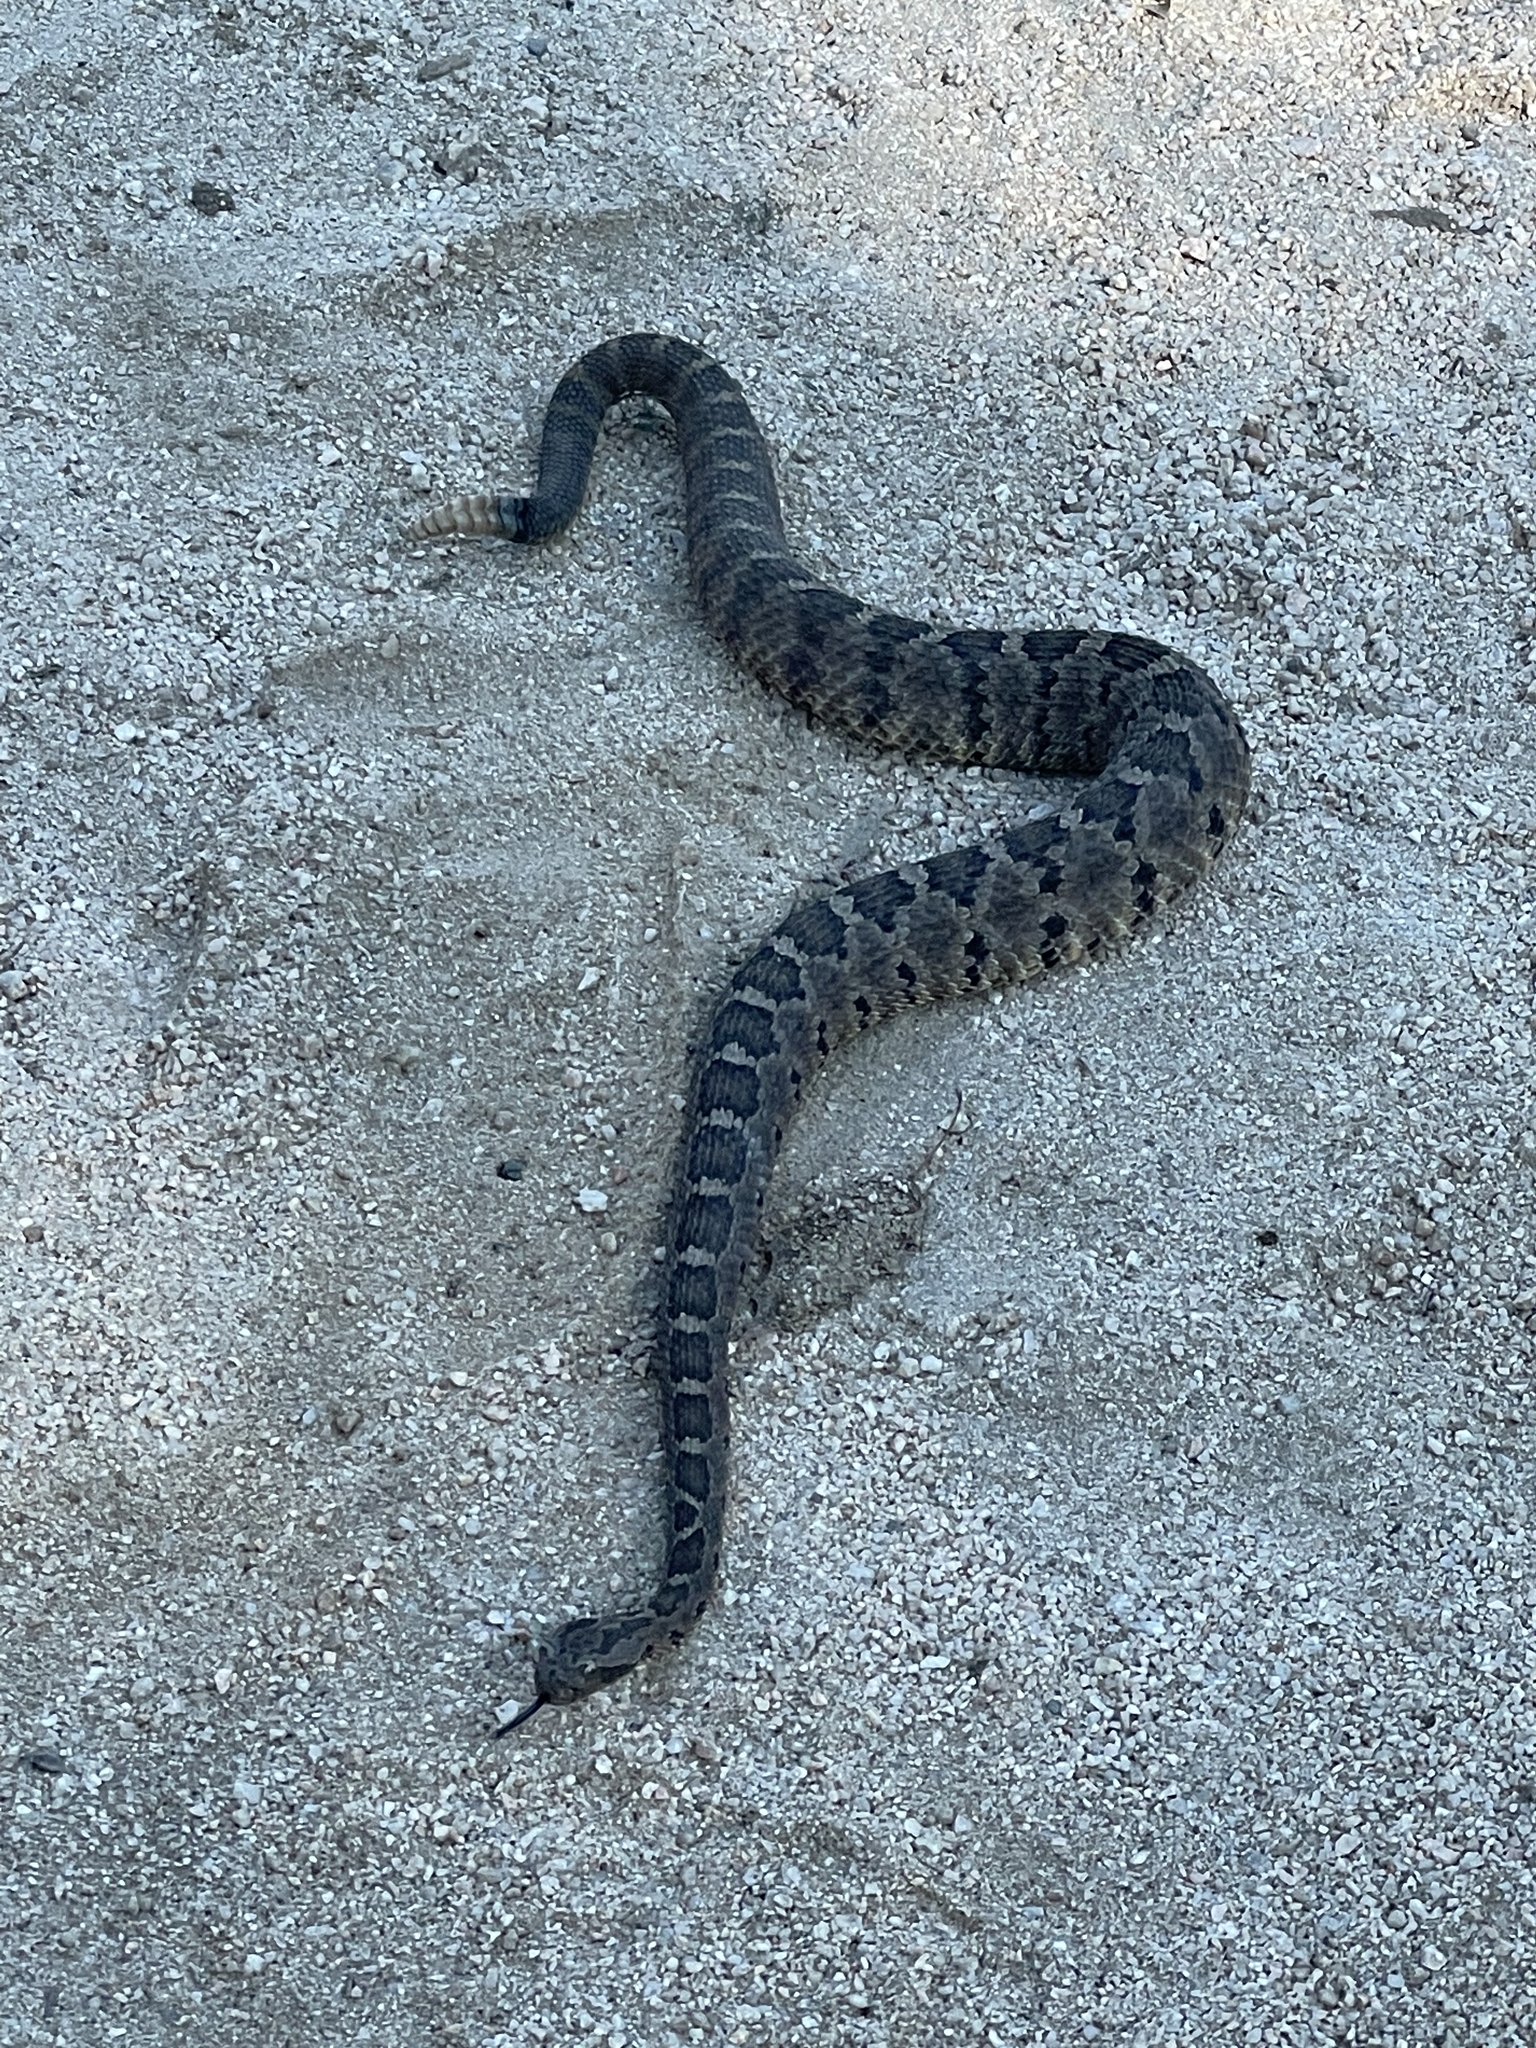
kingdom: Animalia
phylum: Chordata
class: Squamata
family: Viperidae
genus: Crotalus
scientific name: Crotalus enyo
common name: Lower california rattlesnake
